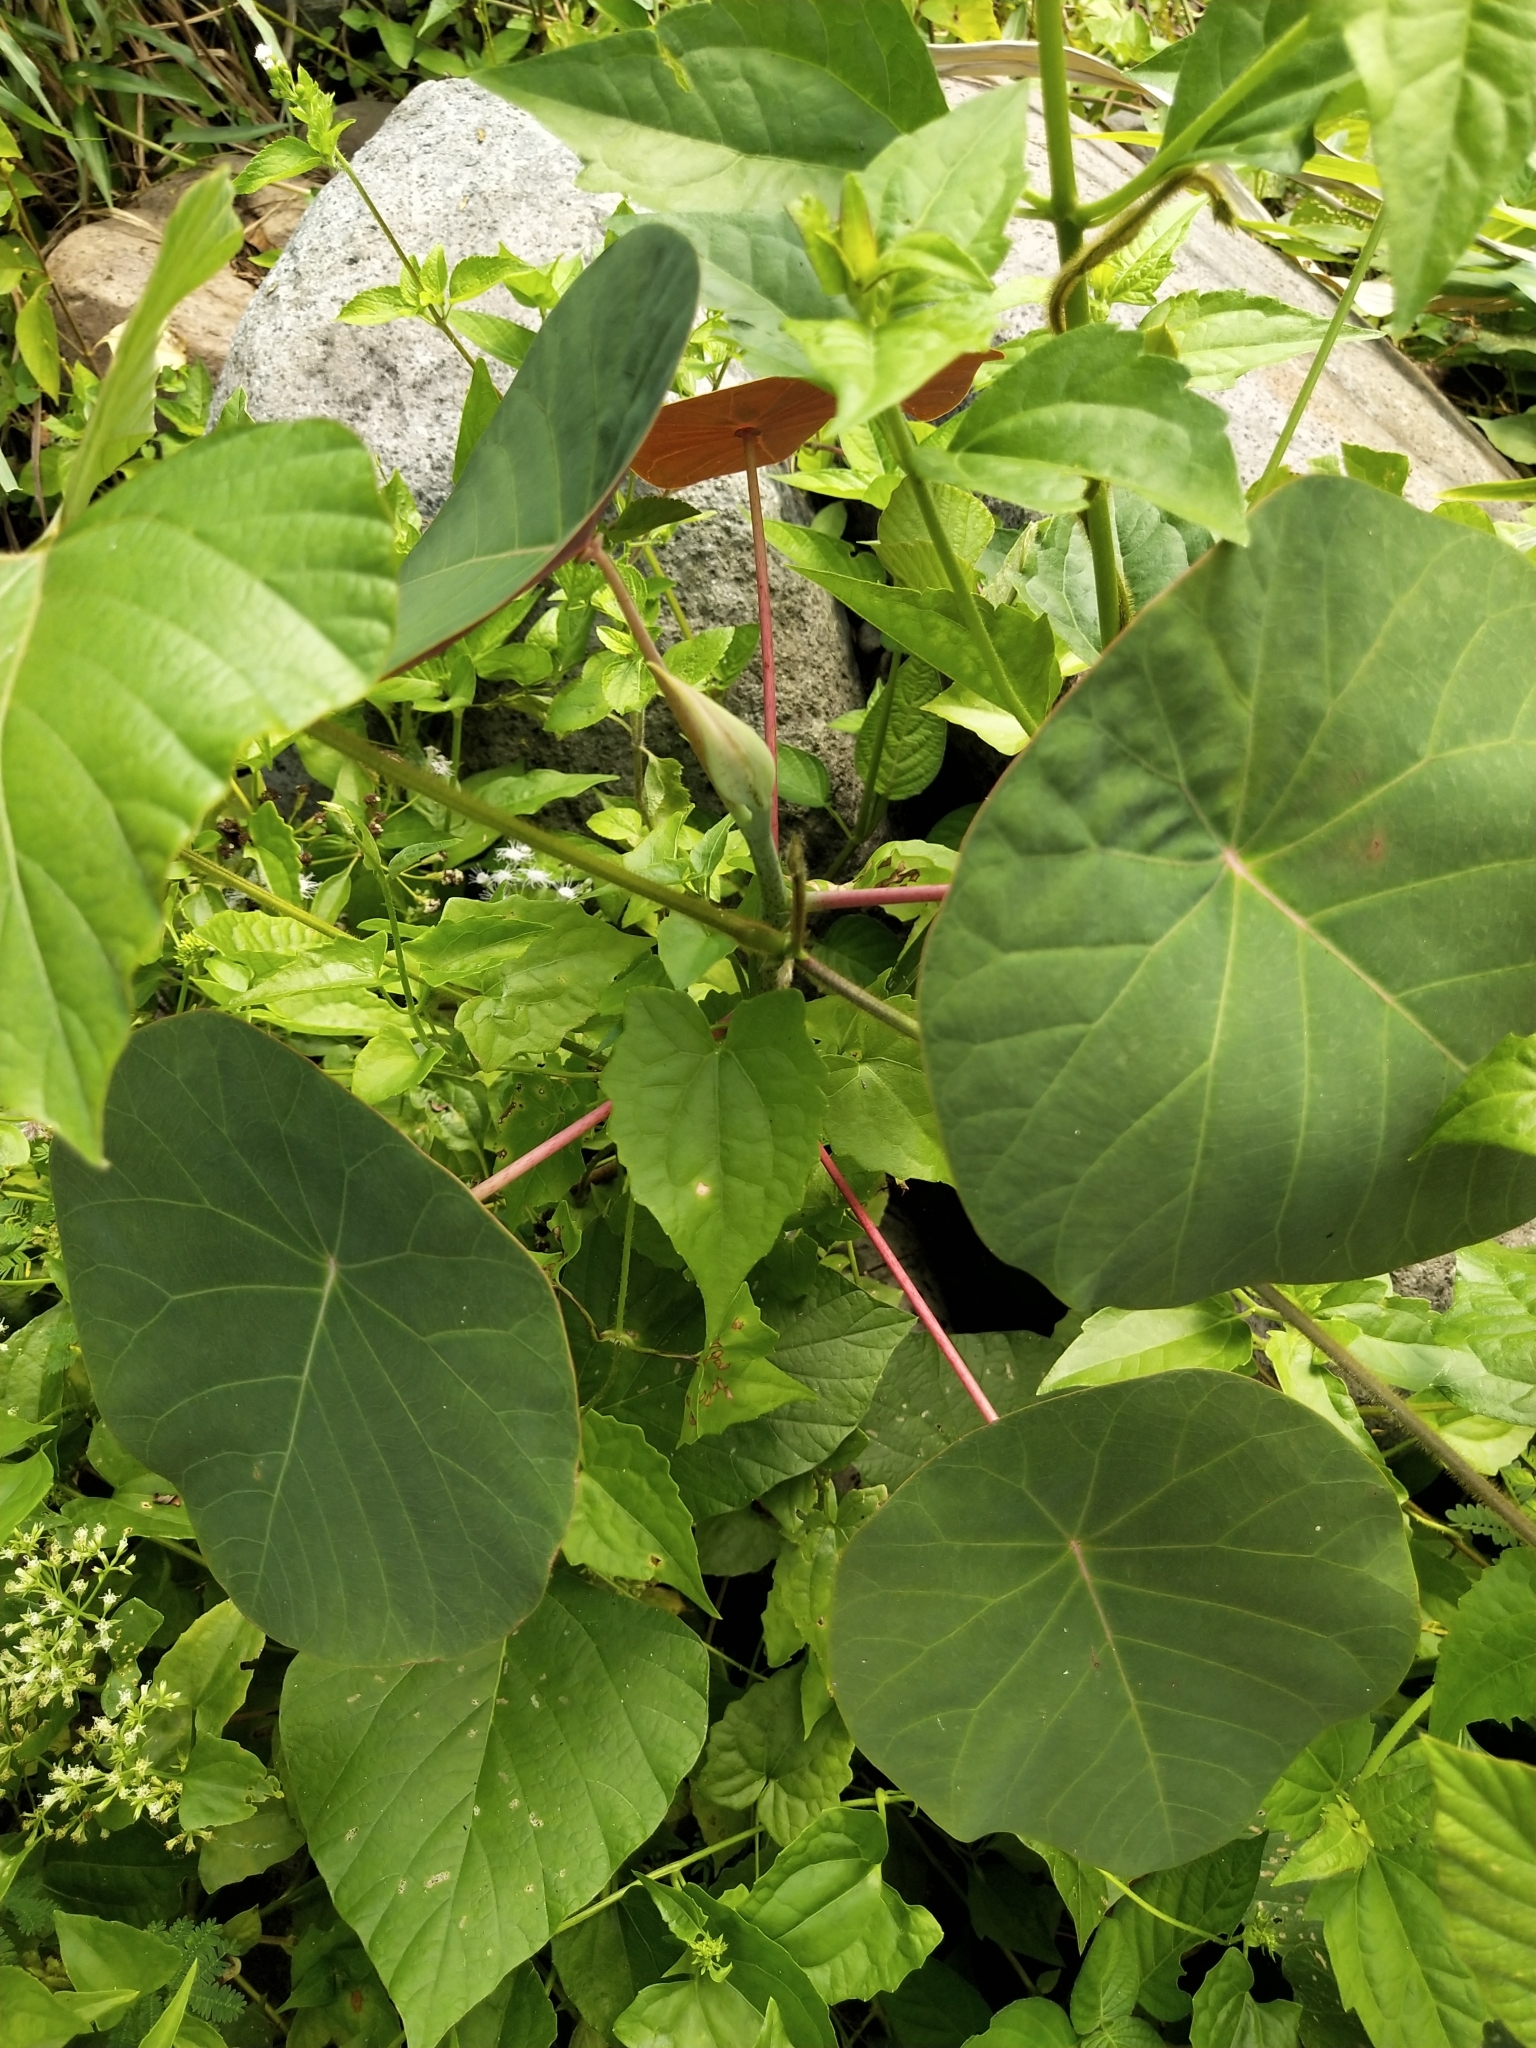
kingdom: Plantae
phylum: Tracheophyta
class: Magnoliopsida
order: Malpighiales
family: Euphorbiaceae
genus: Macaranga
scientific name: Macaranga bicolor
